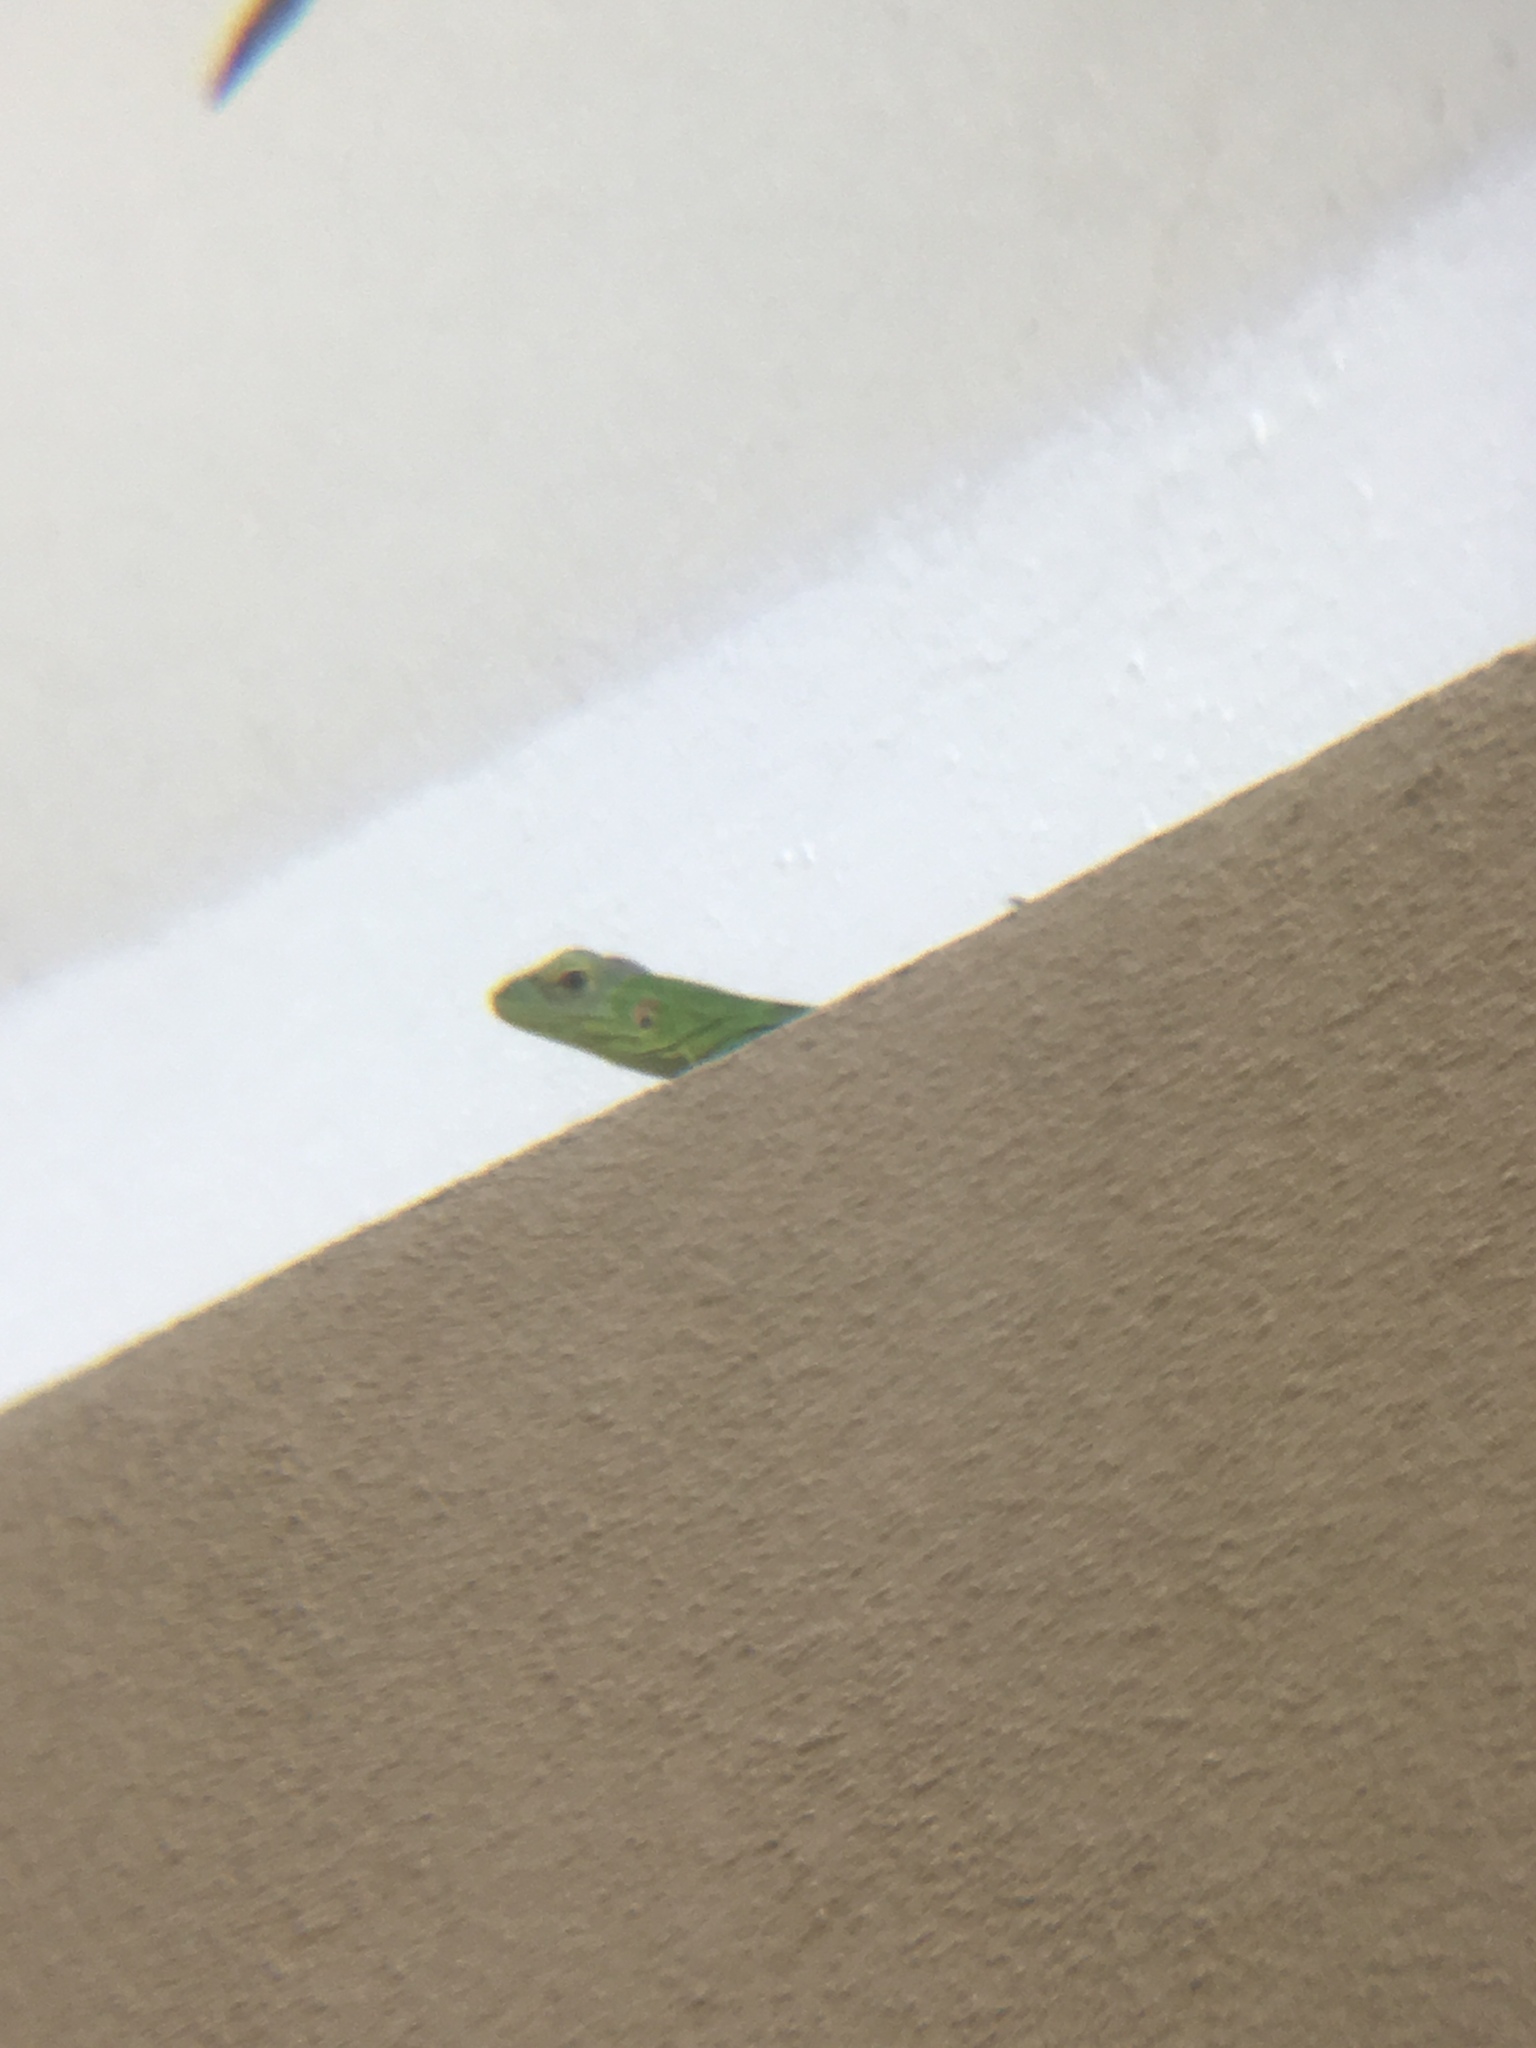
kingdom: Animalia
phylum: Chordata
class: Squamata
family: Iguanidae
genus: Ctenosaura
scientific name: Ctenosaura macrolopha
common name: Cape spinytail iguana
